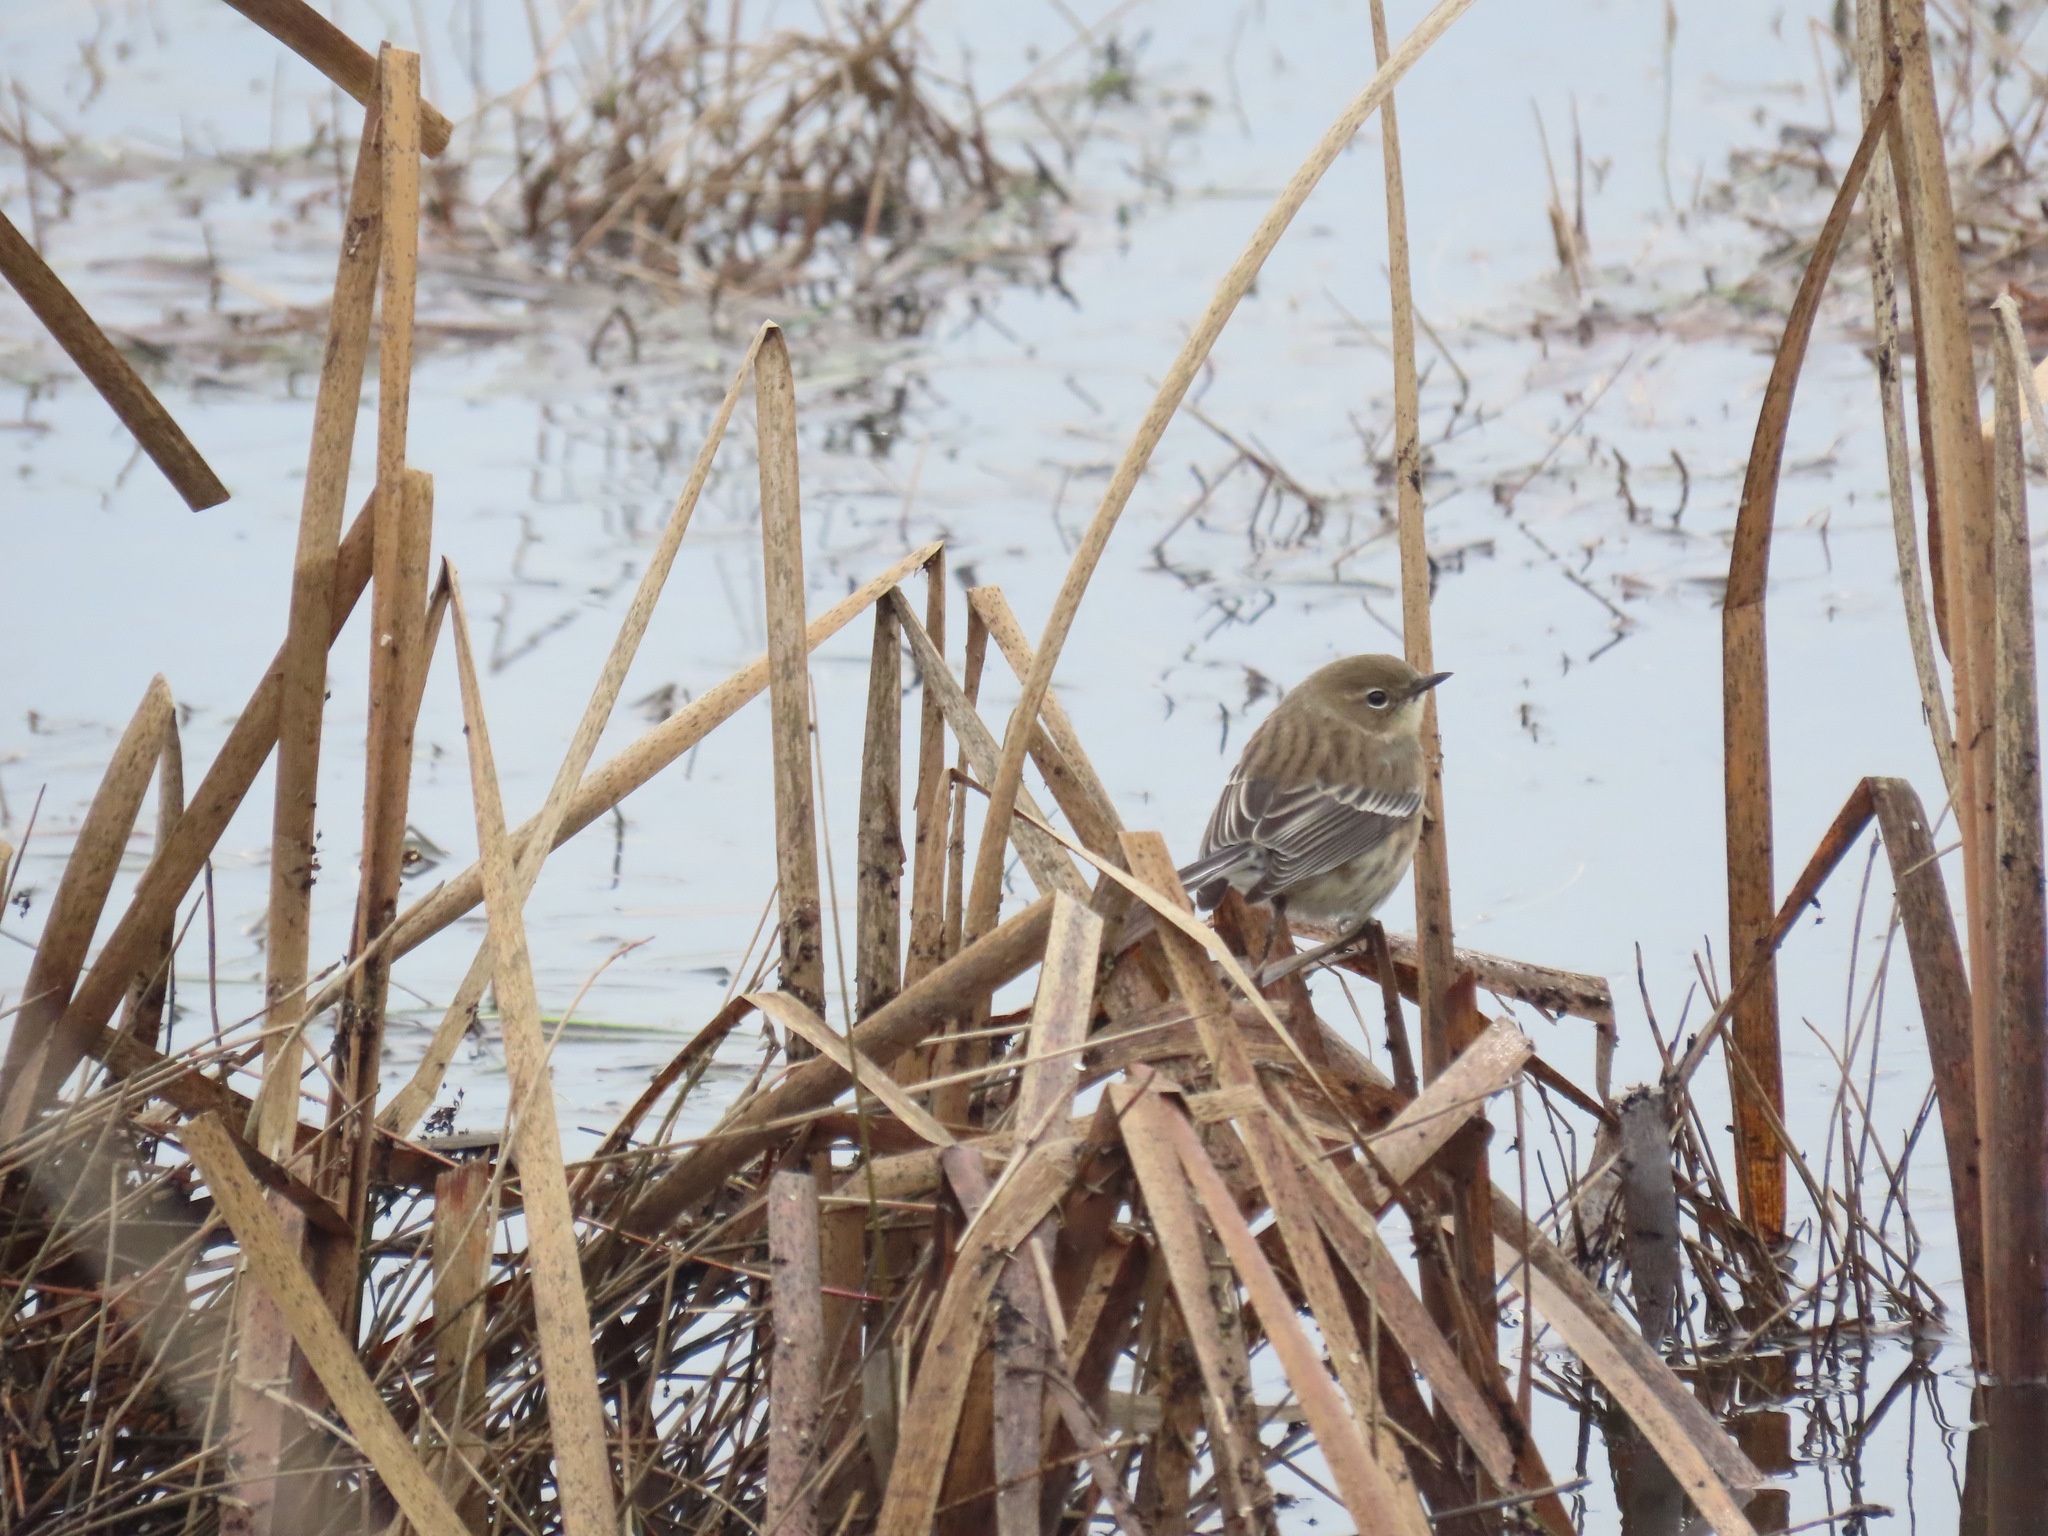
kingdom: Animalia
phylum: Chordata
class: Aves
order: Passeriformes
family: Parulidae
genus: Setophaga
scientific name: Setophaga coronata
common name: Myrtle warbler
